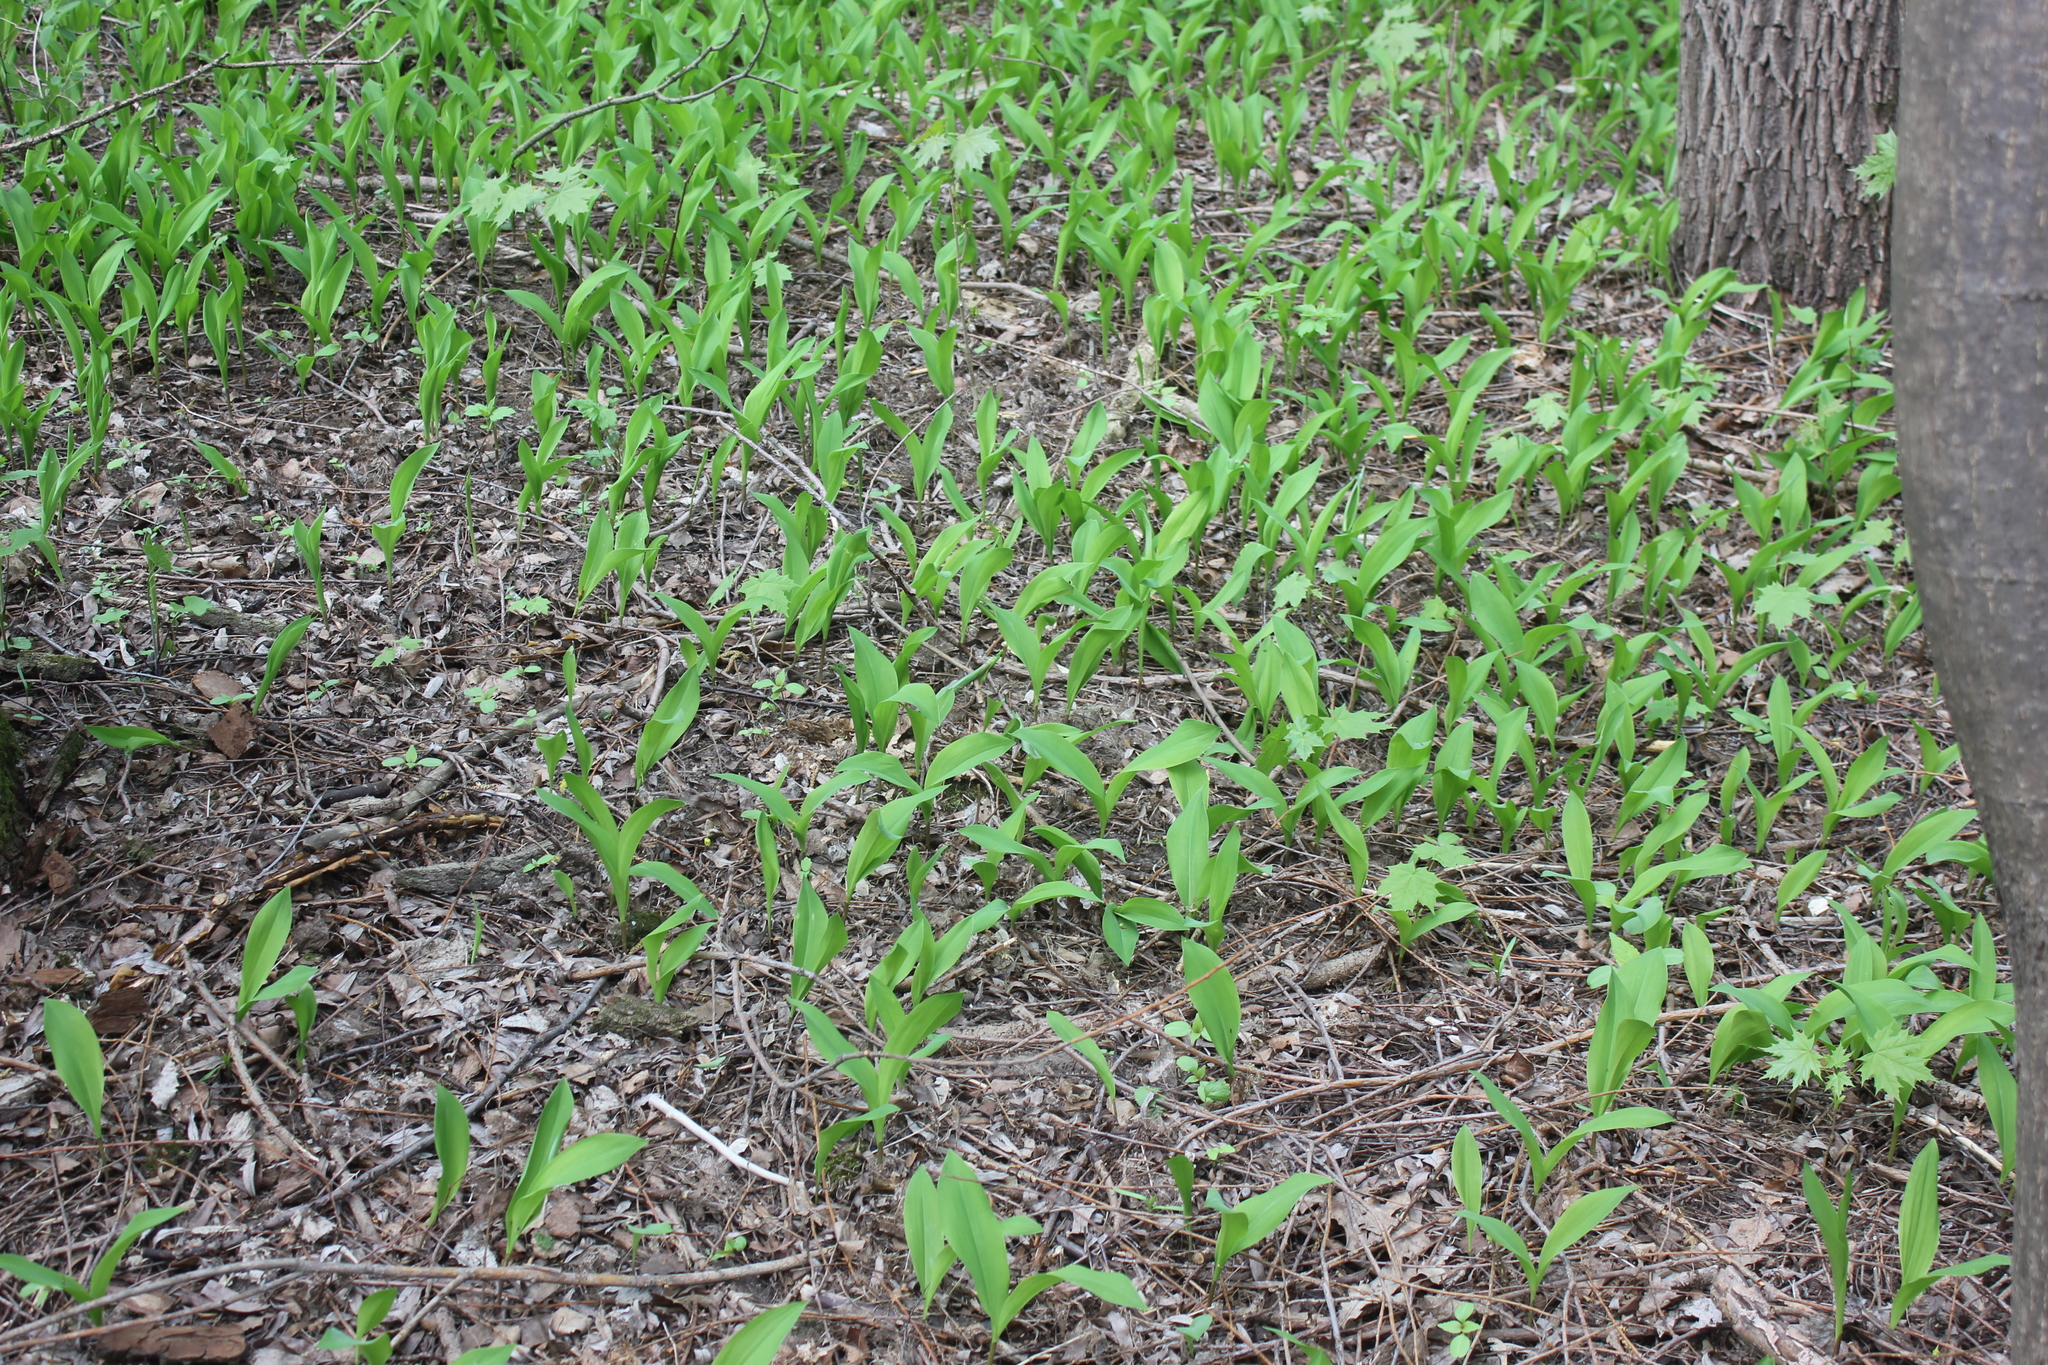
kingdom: Plantae
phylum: Tracheophyta
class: Liliopsida
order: Asparagales
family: Asparagaceae
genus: Convallaria
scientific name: Convallaria majalis
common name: Lily-of-the-valley
